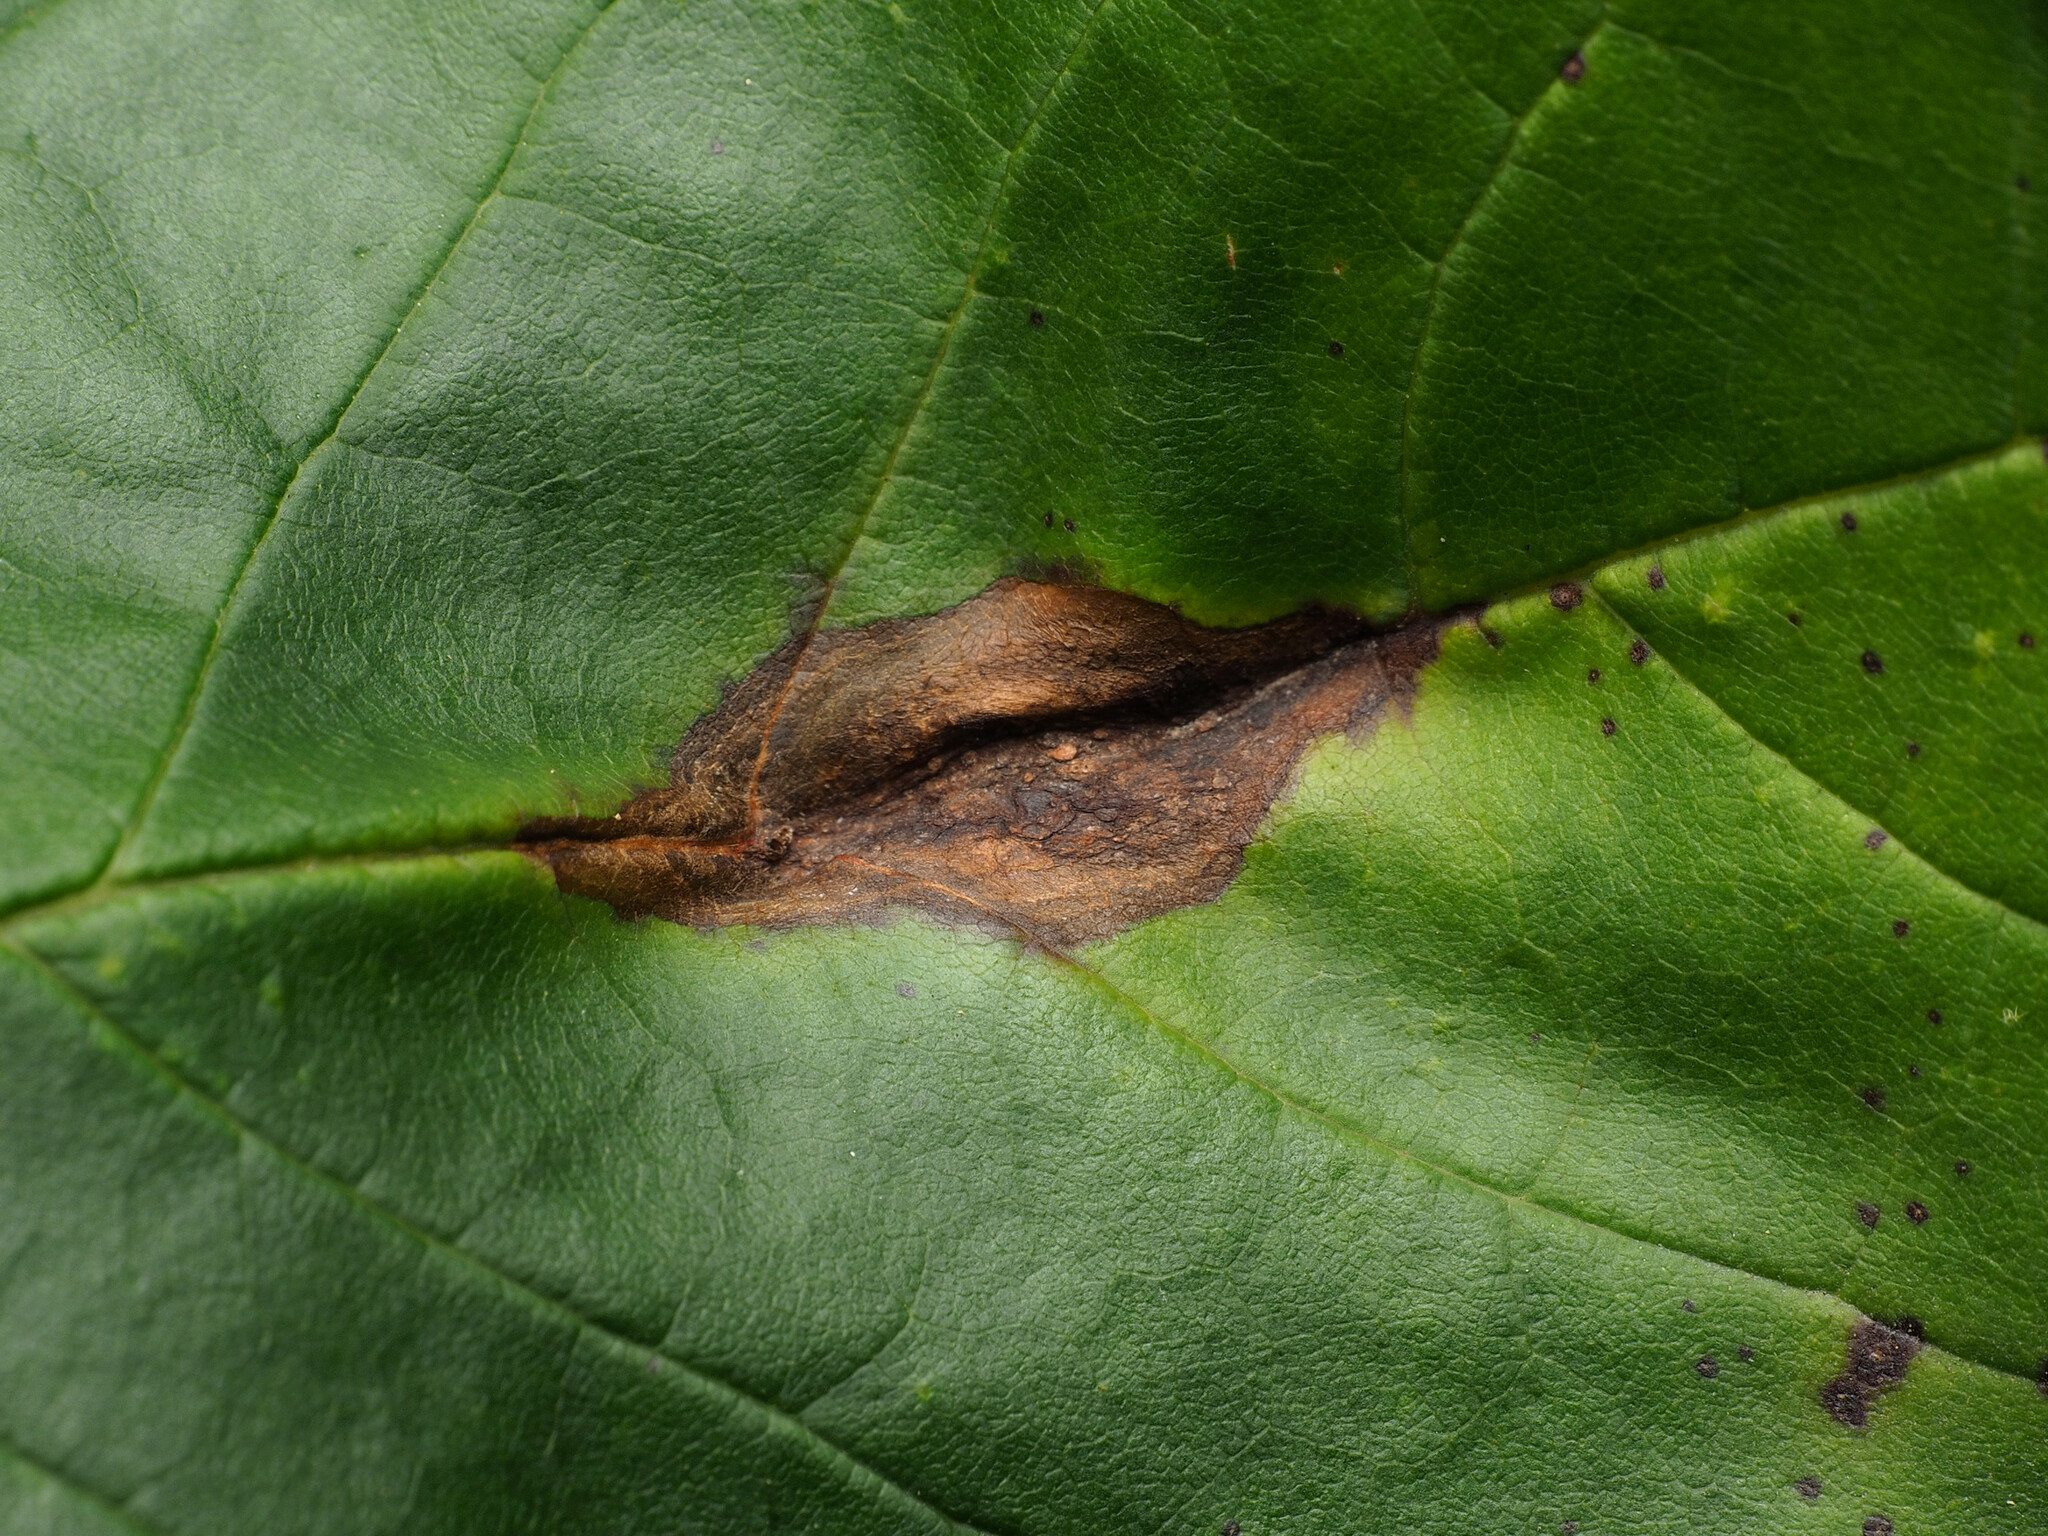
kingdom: Fungi
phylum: Basidiomycota
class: Pucciniomycetes
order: Pucciniales
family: Pucciniaceae
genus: Puccinia
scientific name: Puccinia sparganioidis
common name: Ash rust
